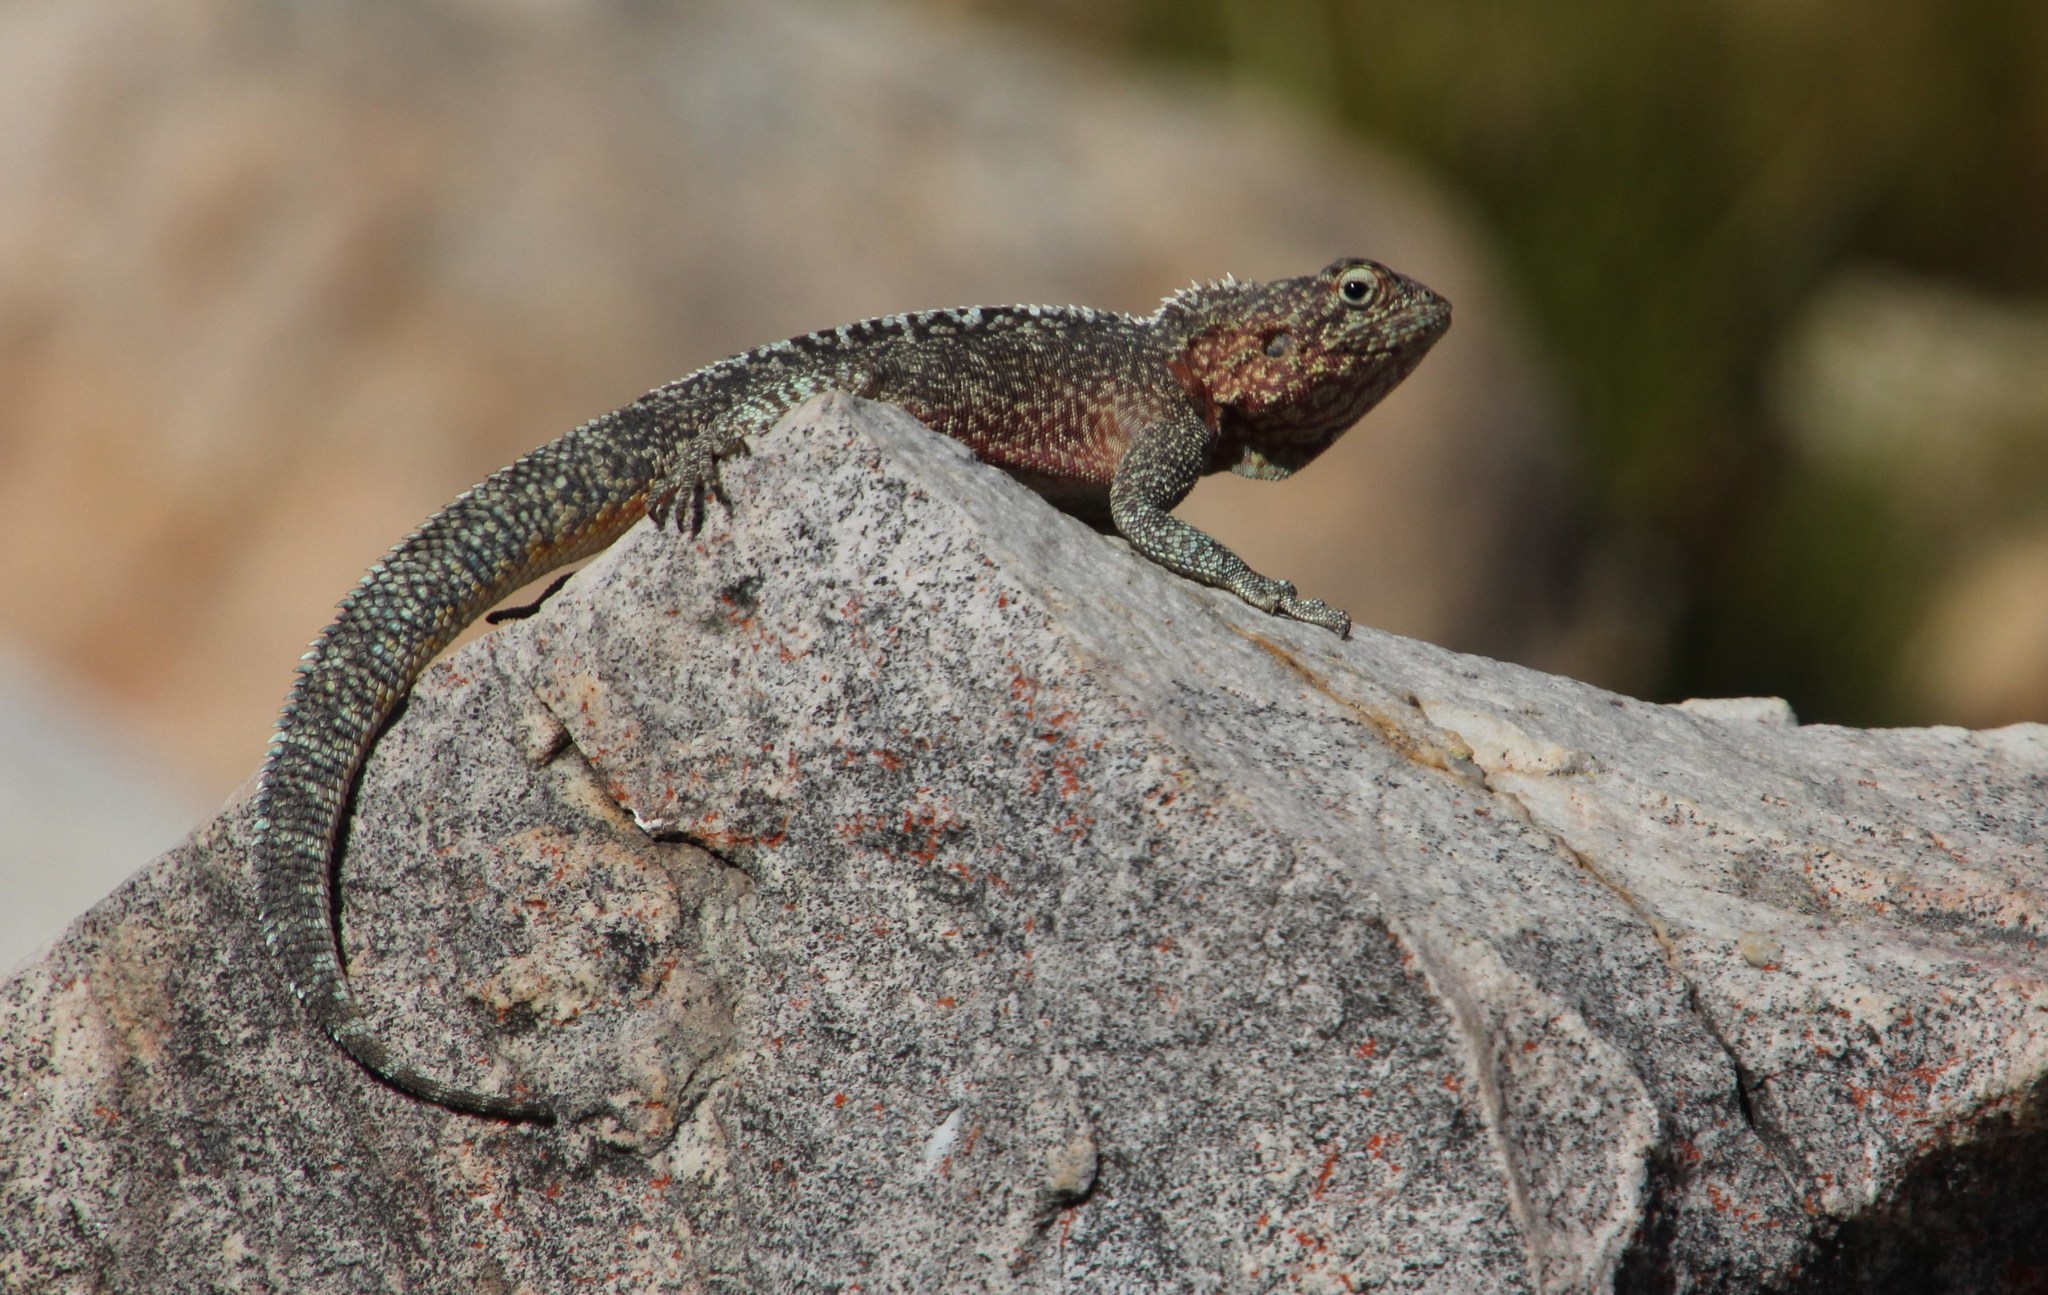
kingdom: Animalia
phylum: Chordata
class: Squamata
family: Agamidae
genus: Agama
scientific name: Agama atra
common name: Southern african rock agama
